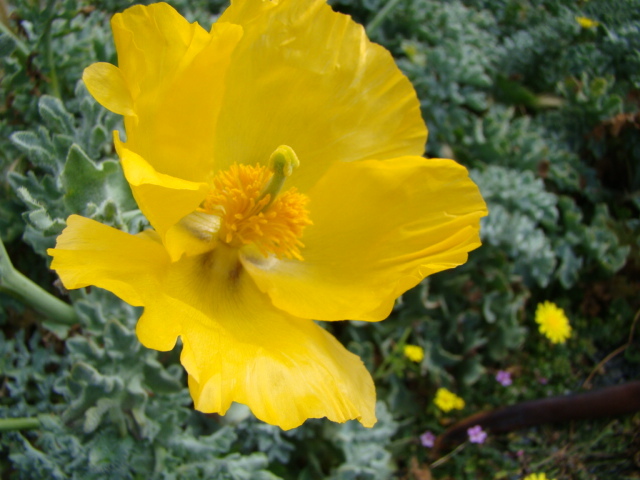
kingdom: Plantae
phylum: Tracheophyta
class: Magnoliopsida
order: Ranunculales
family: Papaveraceae
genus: Glaucium
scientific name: Glaucium flavum
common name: Yellow horned-poppy
